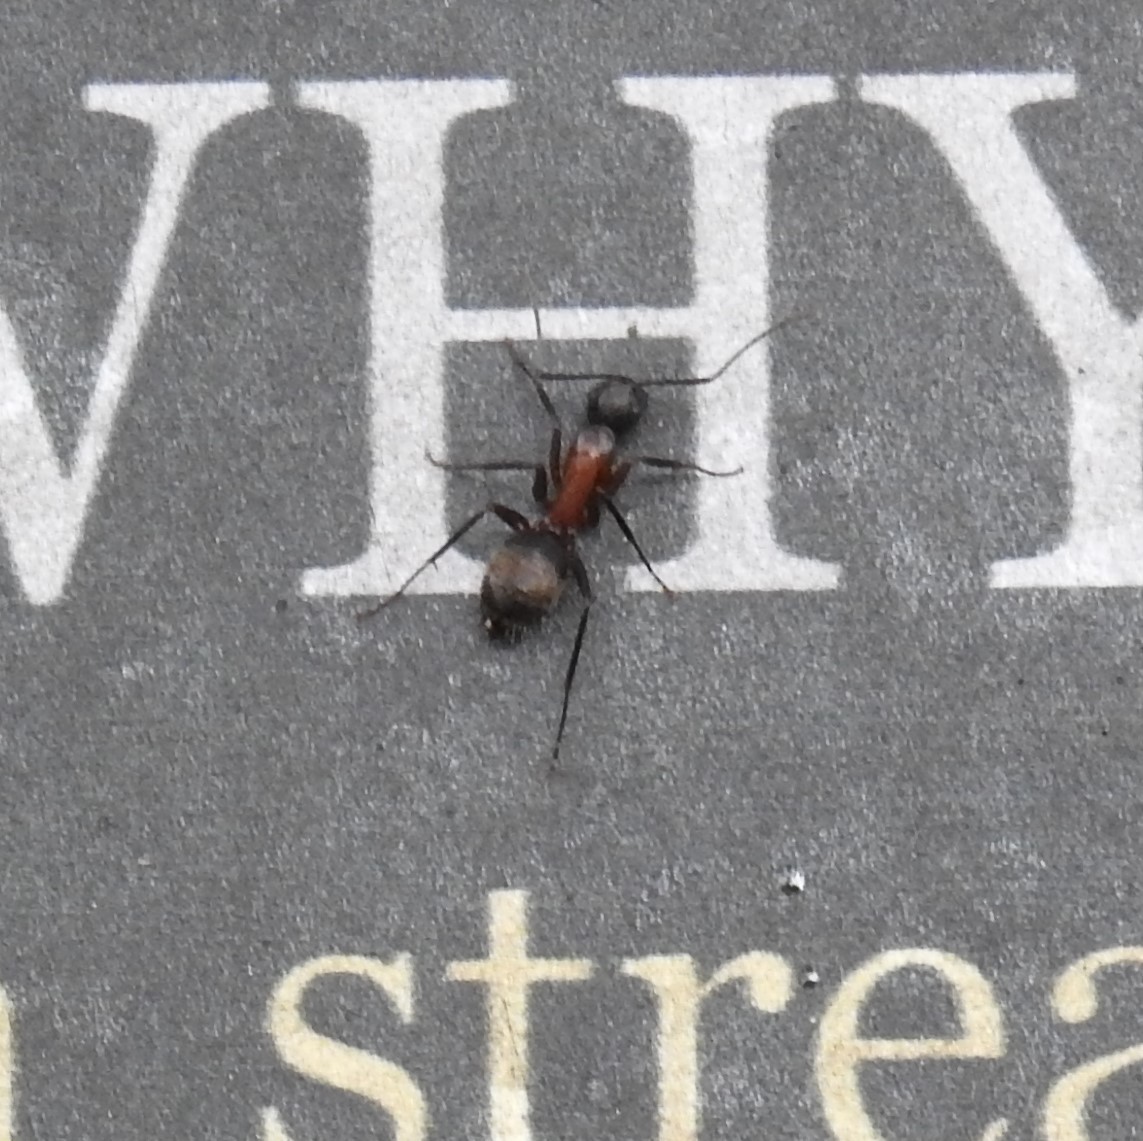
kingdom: Animalia
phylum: Arthropoda
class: Insecta
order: Hymenoptera
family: Formicidae
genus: Camponotus
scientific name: Camponotus chromaiodes
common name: Red carpenter ant
